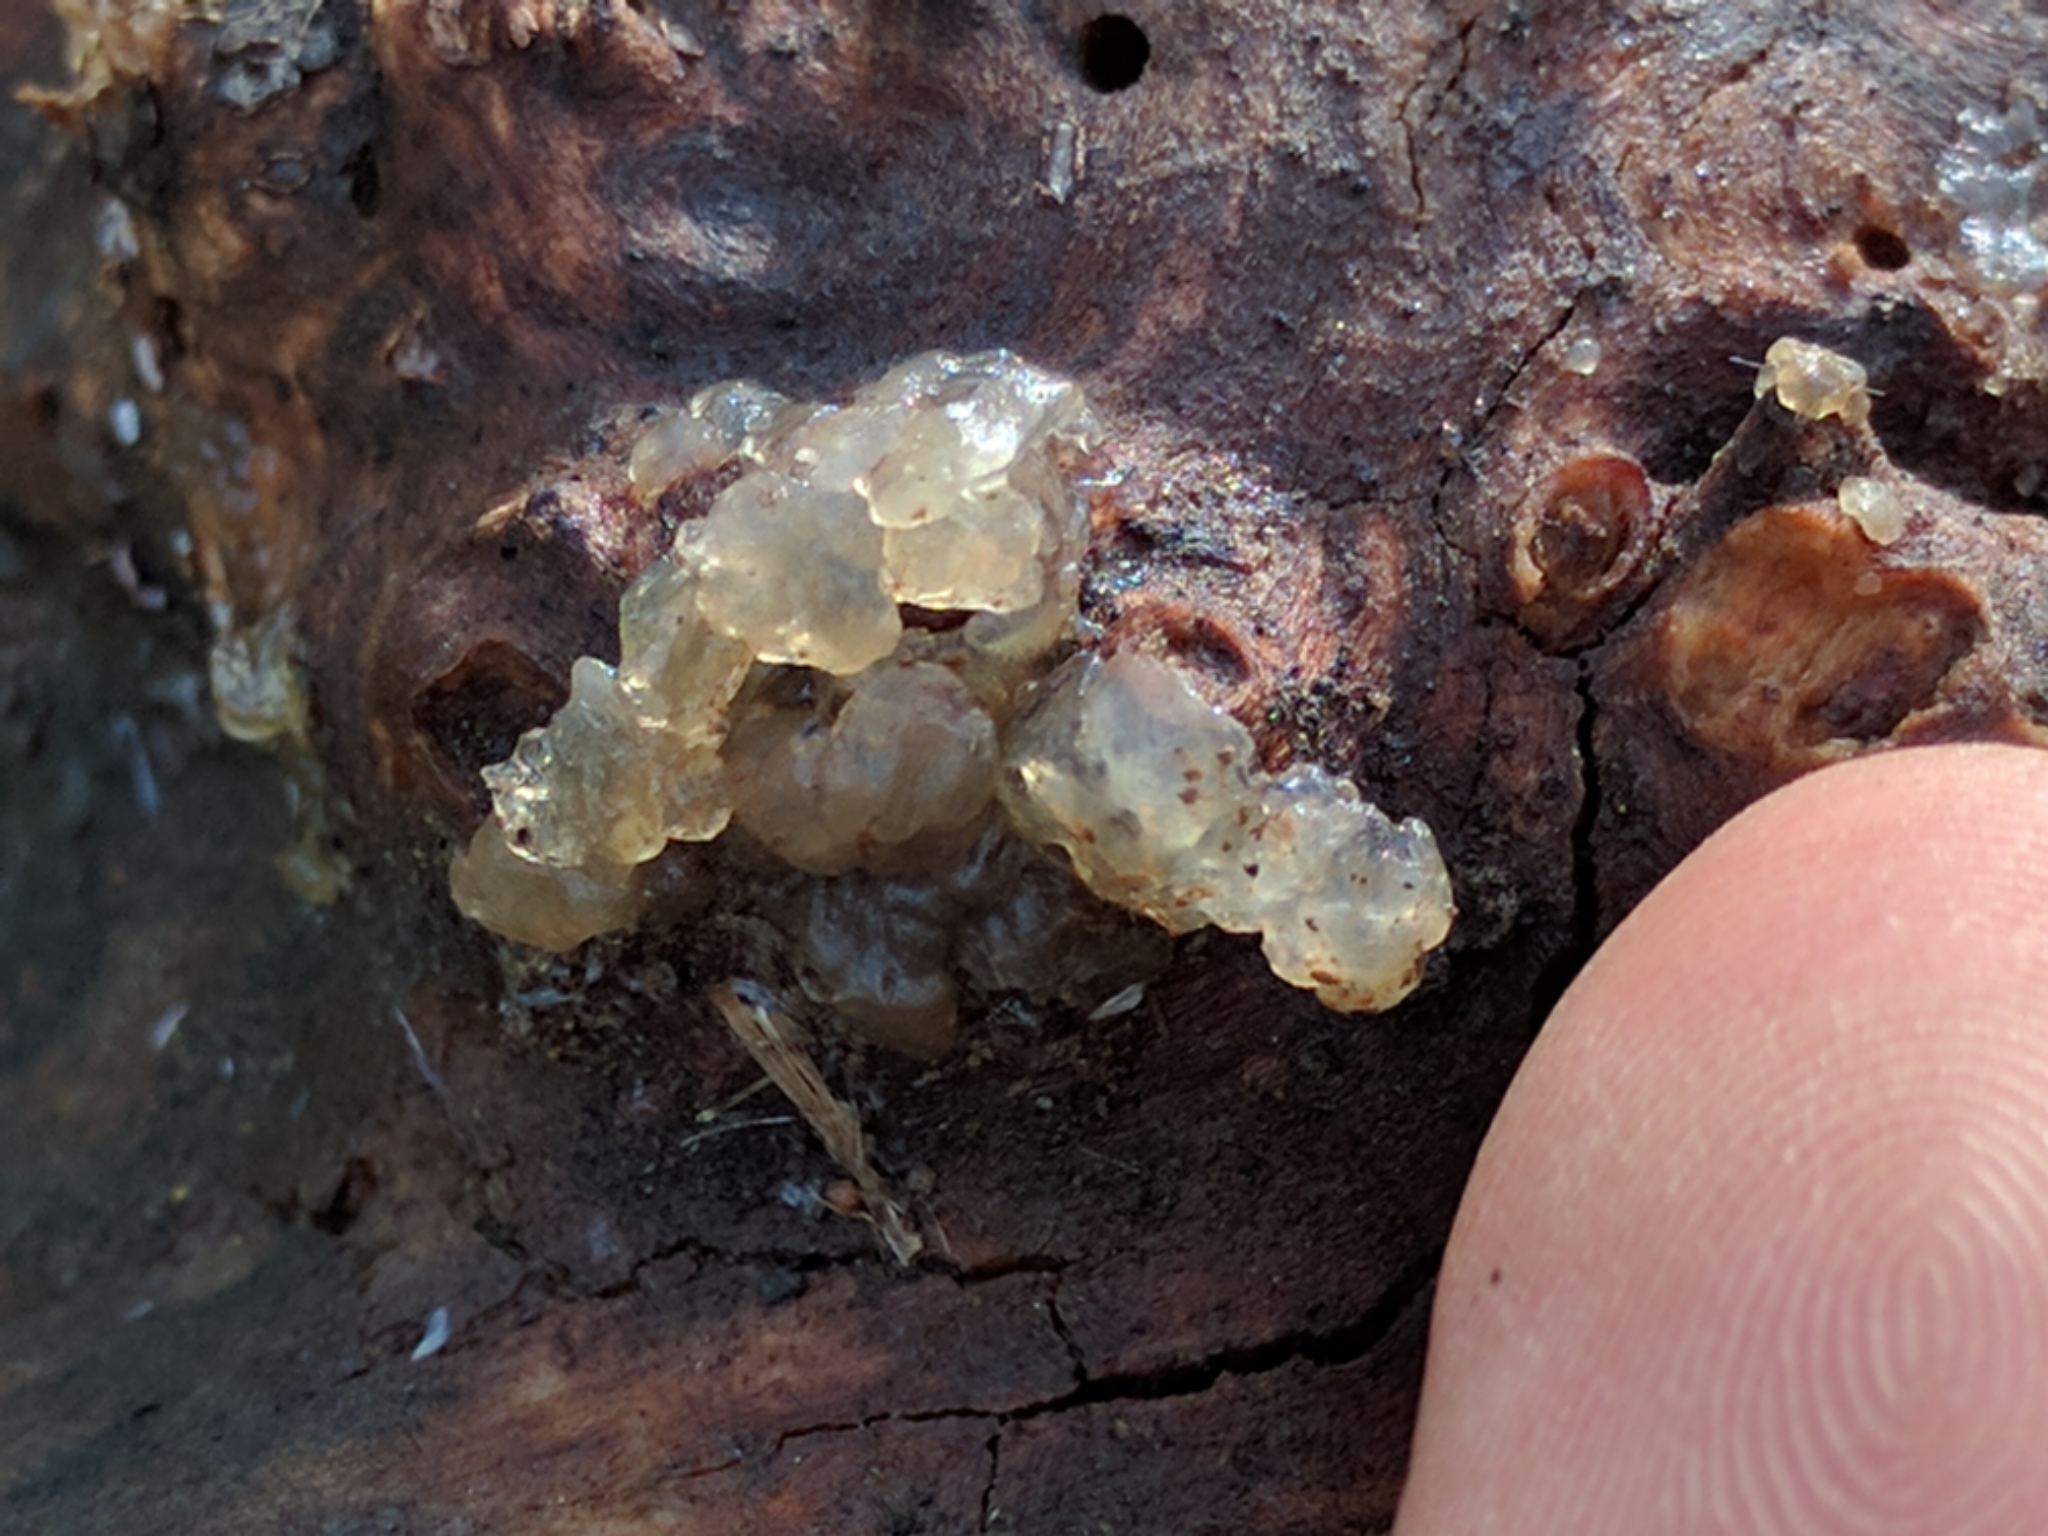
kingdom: Fungi
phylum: Basidiomycota
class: Agaricomycetes
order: Auriculariales
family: Hyaloriaceae
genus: Myxarium
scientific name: Myxarium nucleatum
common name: Crystal brain fungus
